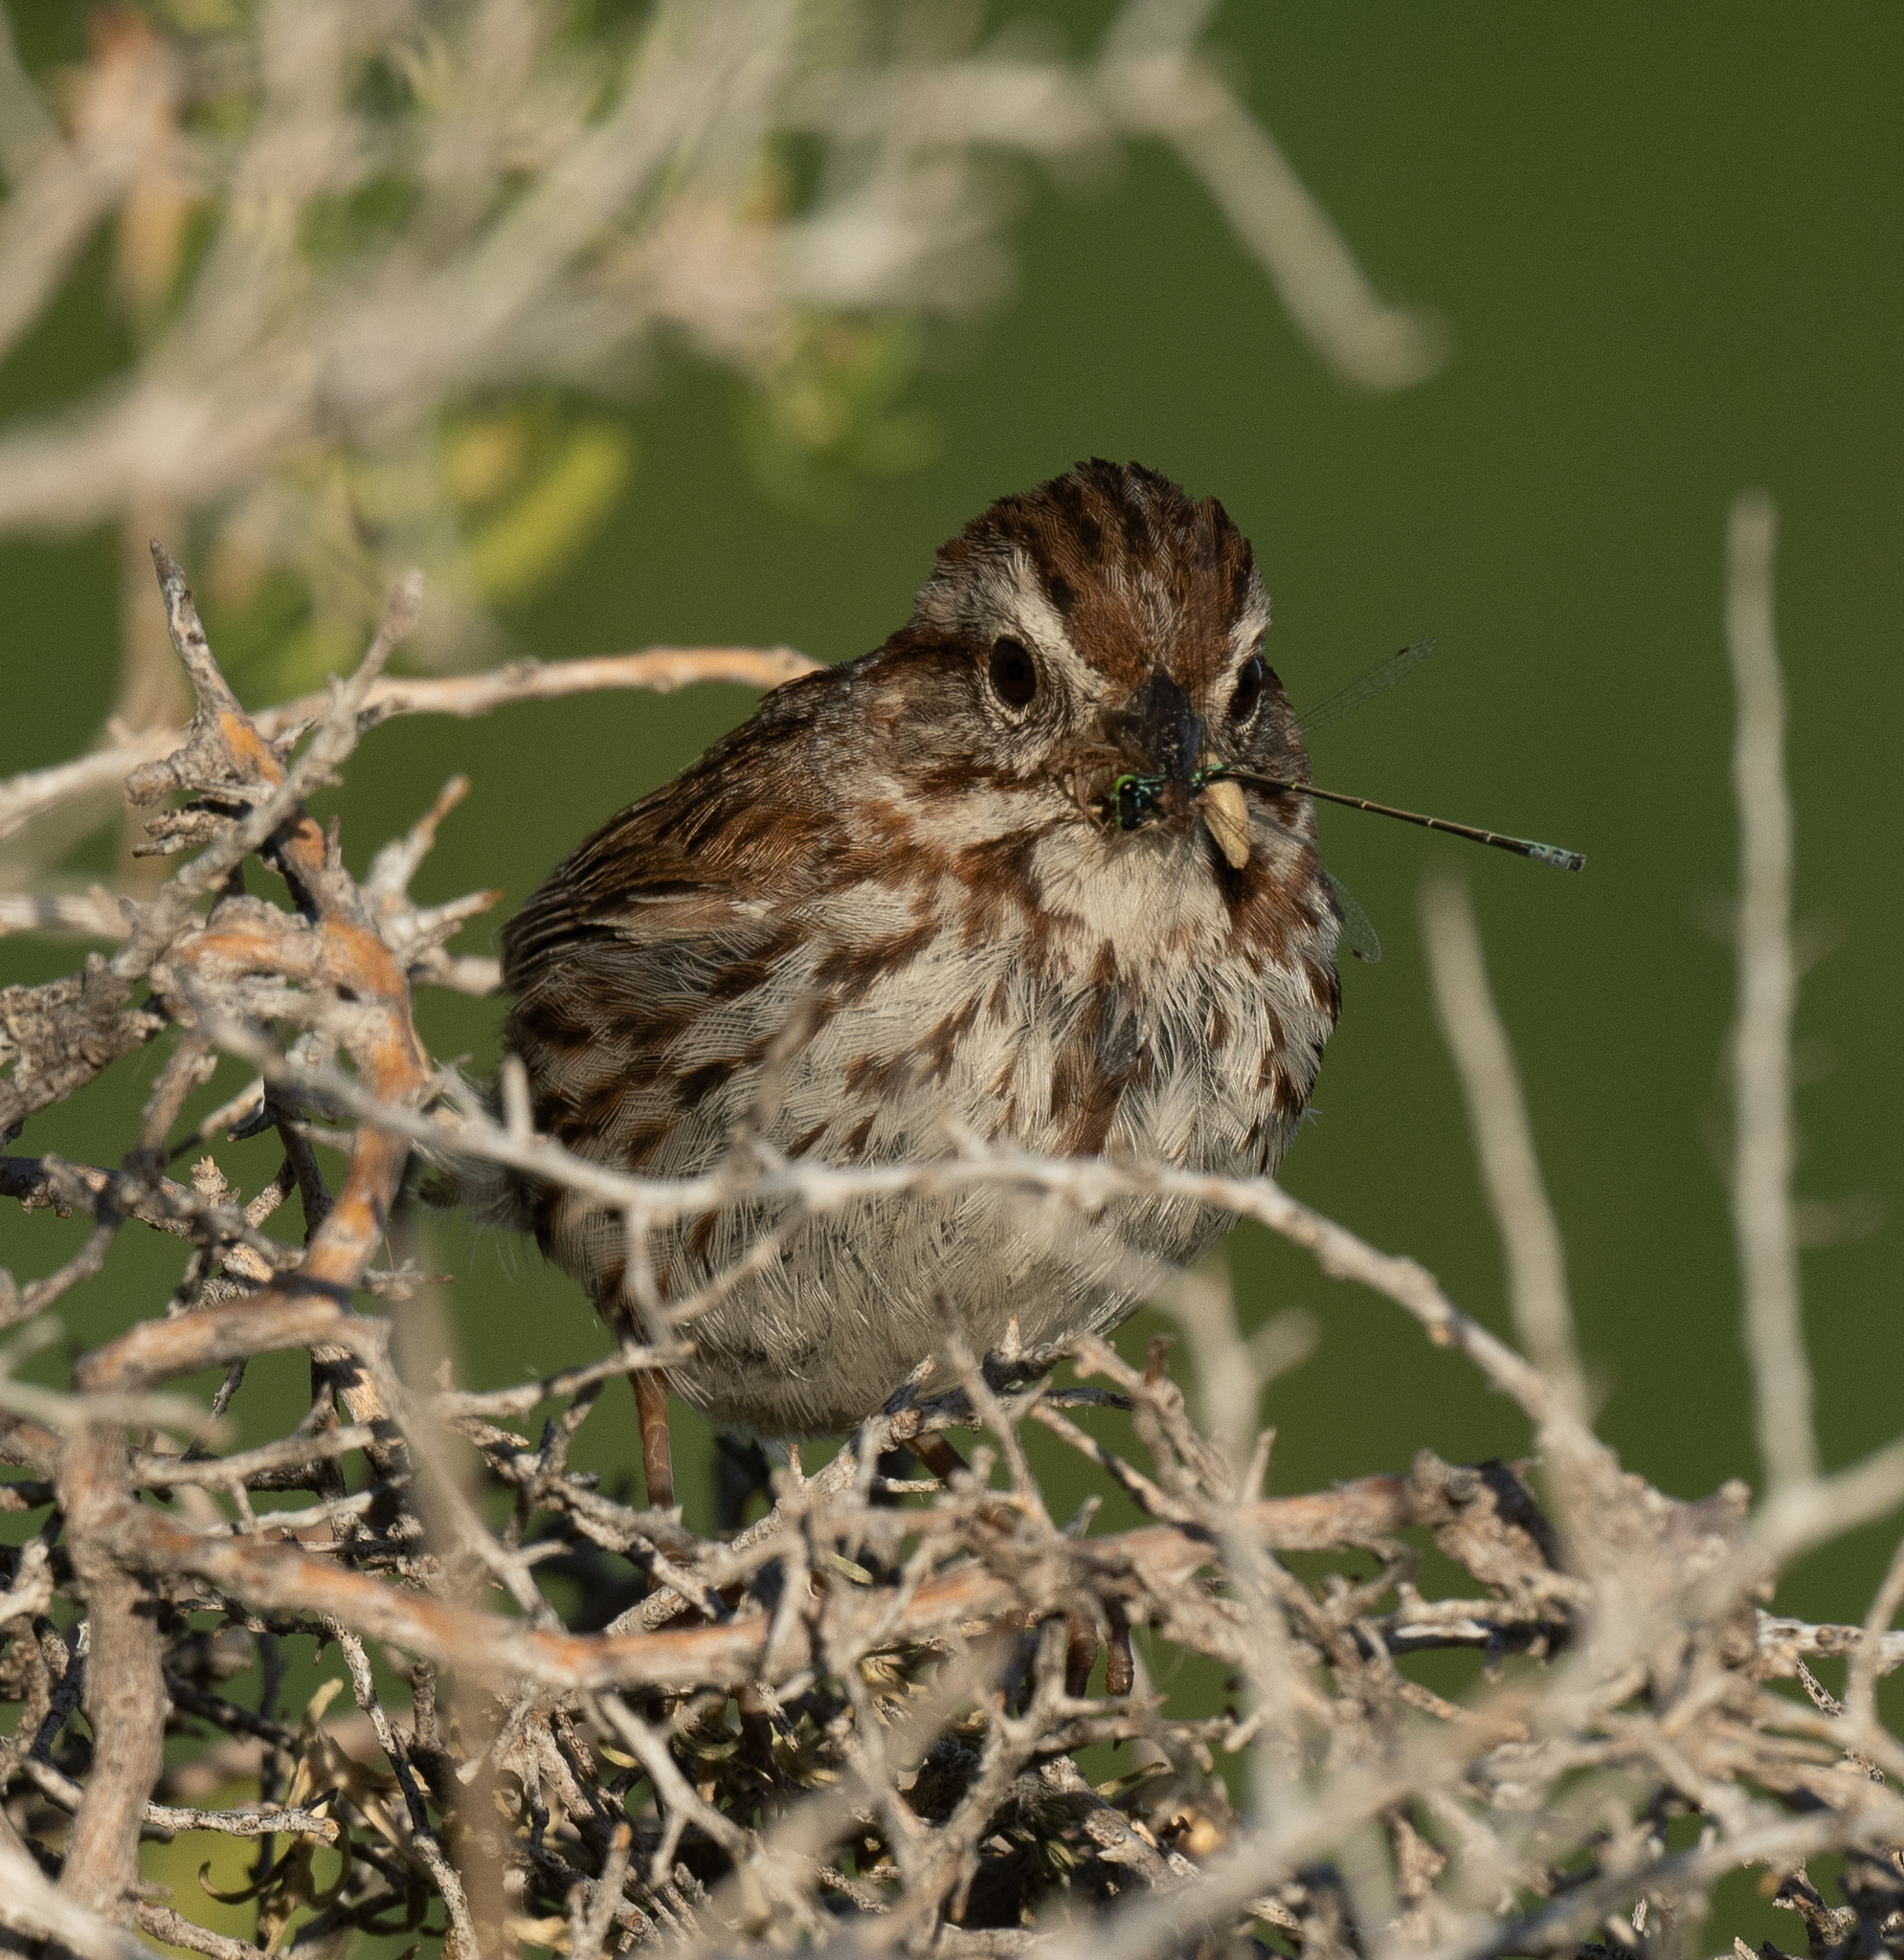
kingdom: Animalia
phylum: Chordata
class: Aves
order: Passeriformes
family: Passerellidae
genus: Melospiza
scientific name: Melospiza melodia
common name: Song sparrow
